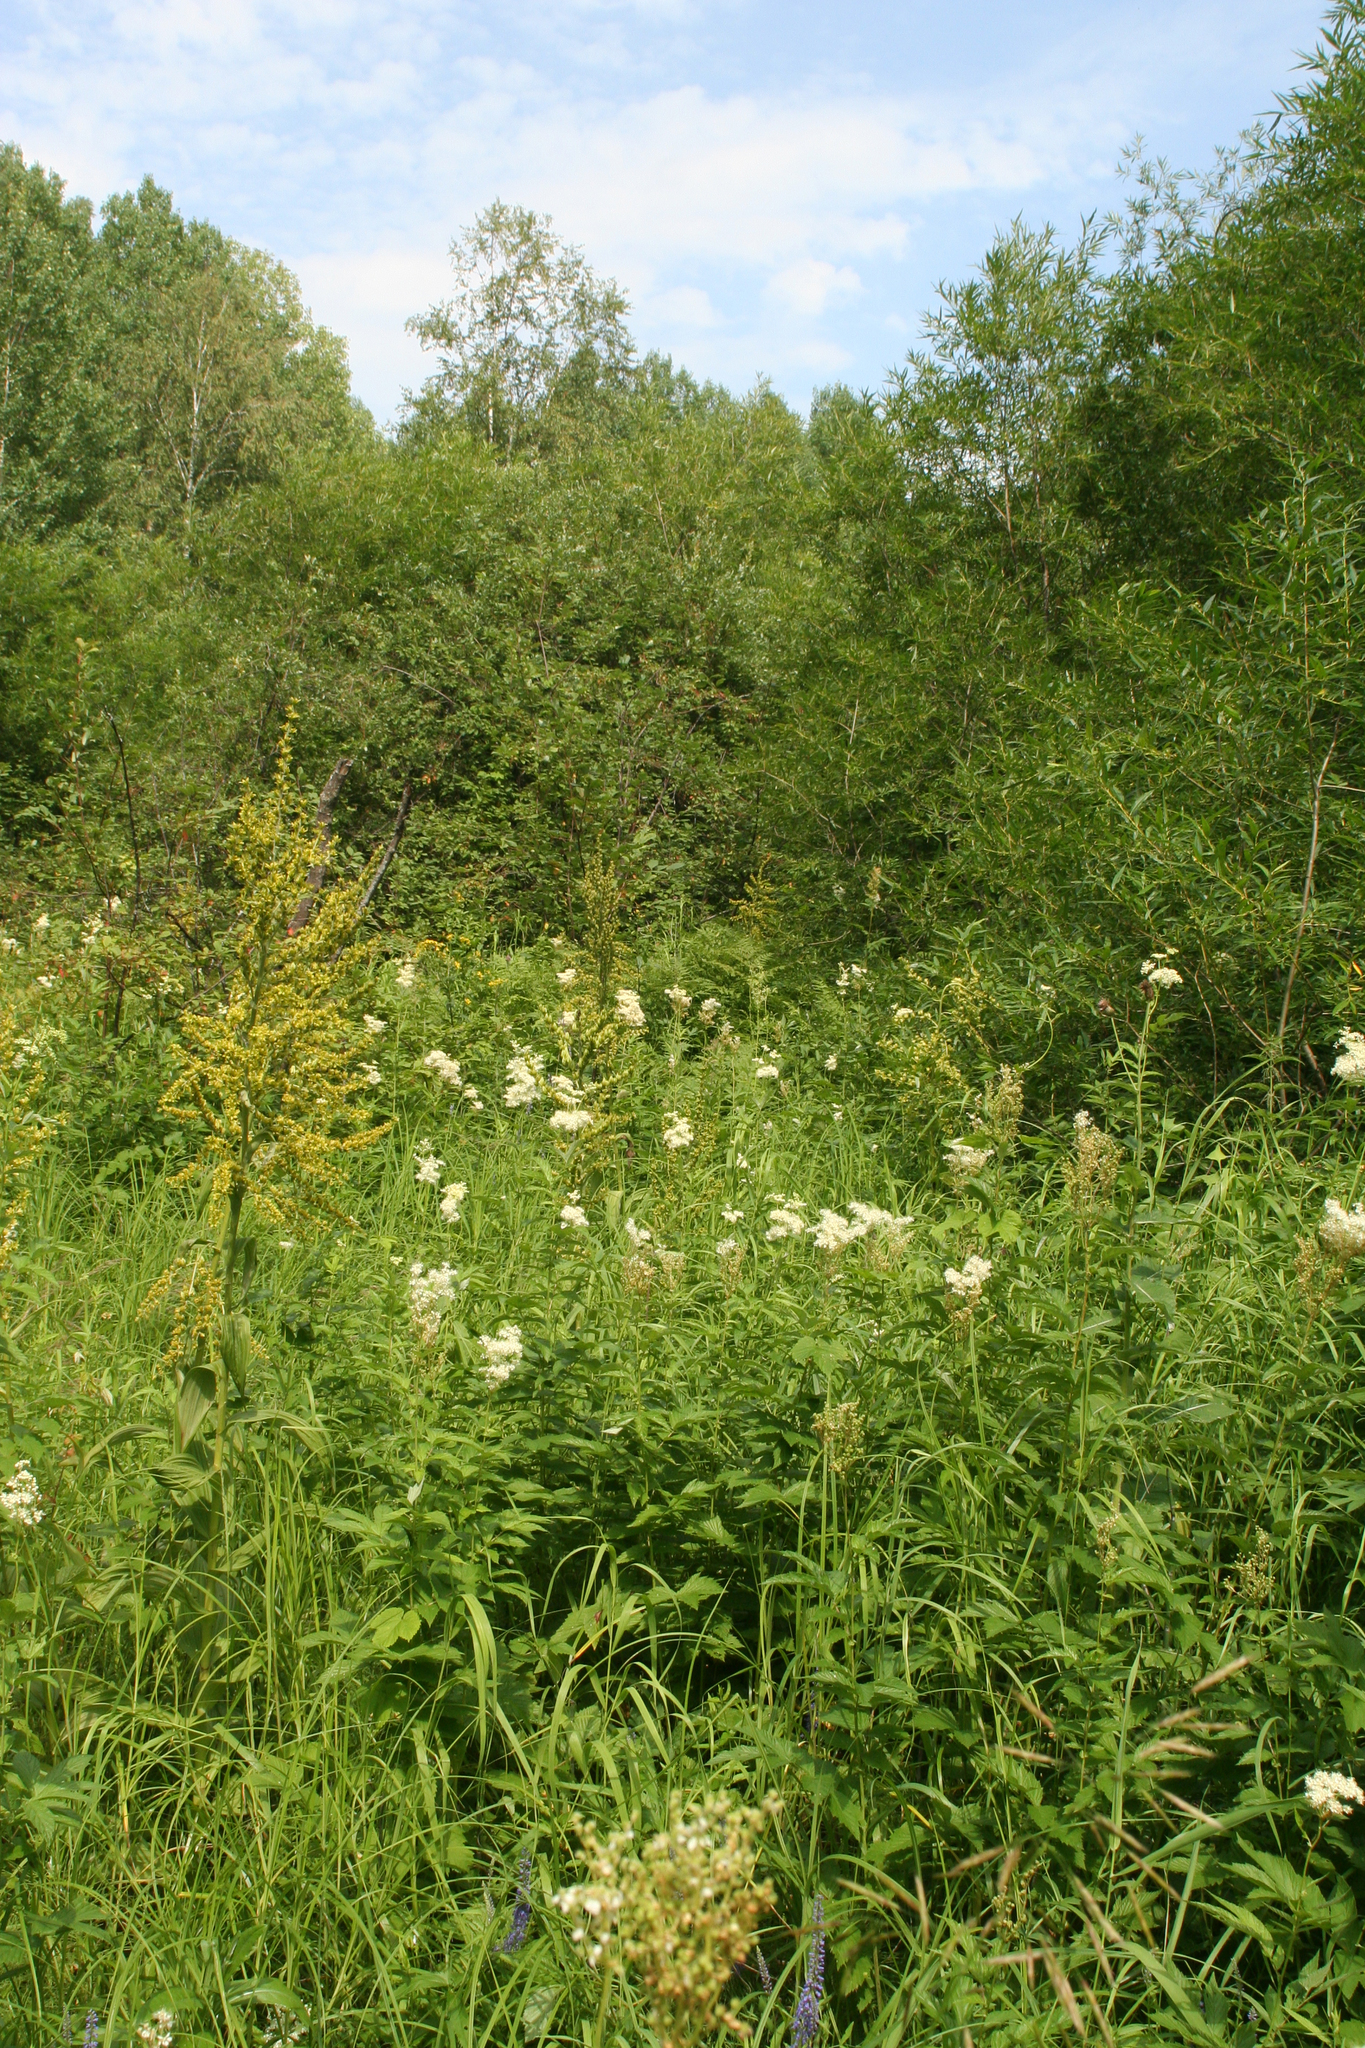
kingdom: Plantae
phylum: Tracheophyta
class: Liliopsida
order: Liliales
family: Melanthiaceae
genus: Veratrum
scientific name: Veratrum lobelianum
